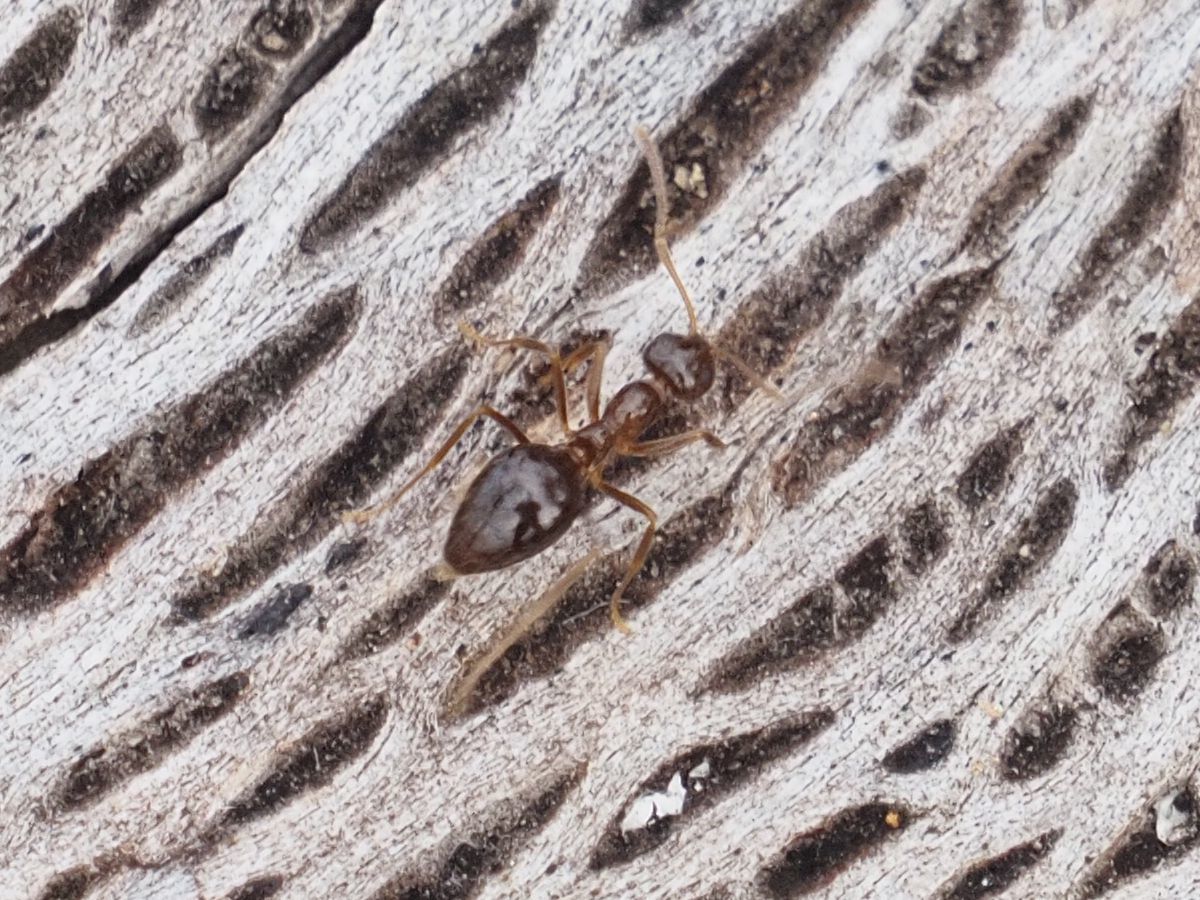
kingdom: Animalia
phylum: Arthropoda
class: Insecta
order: Hymenoptera
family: Formicidae
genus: Prenolepis
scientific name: Prenolepis nitens
